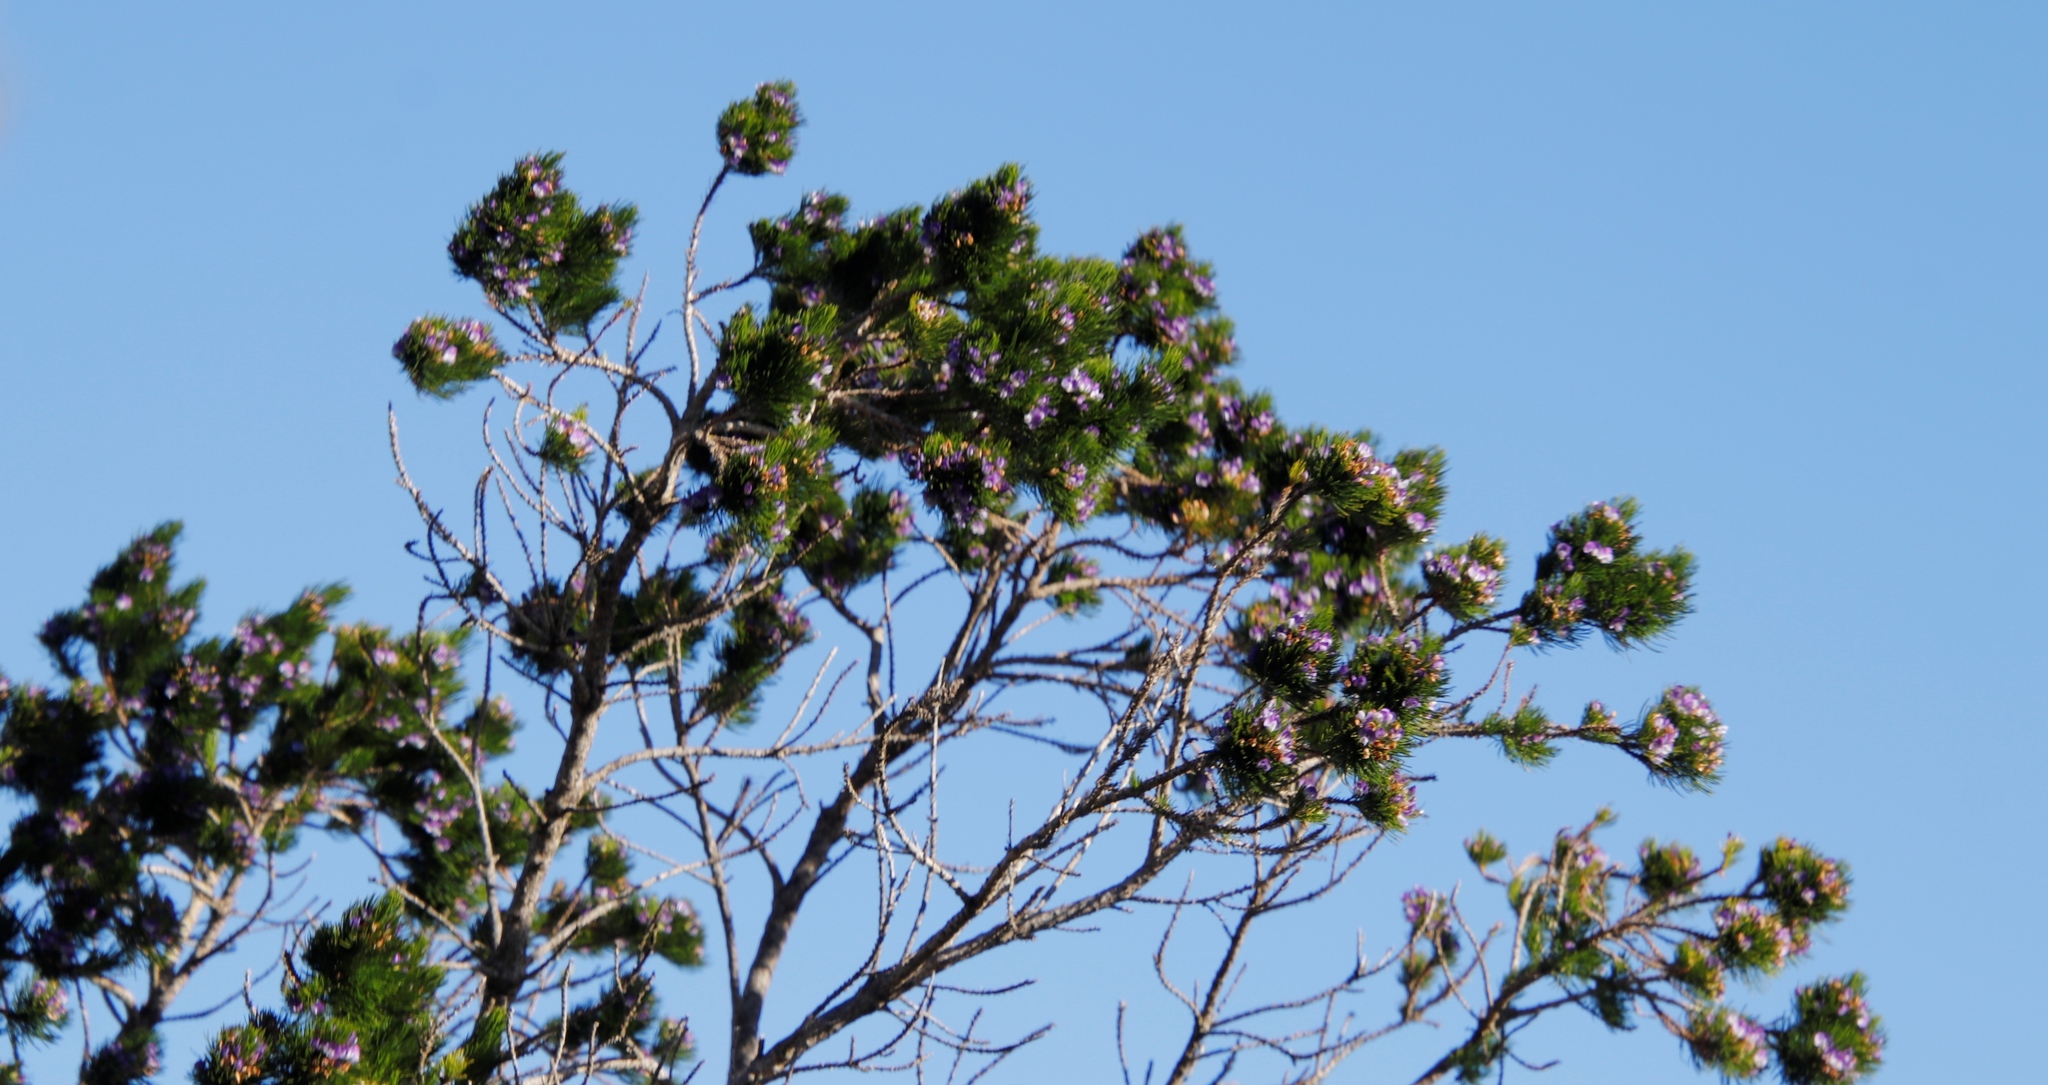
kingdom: Plantae
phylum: Tracheophyta
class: Magnoliopsida
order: Fabales
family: Fabaceae
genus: Psoralea
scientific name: Psoralea pinnata
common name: African scurfpea
